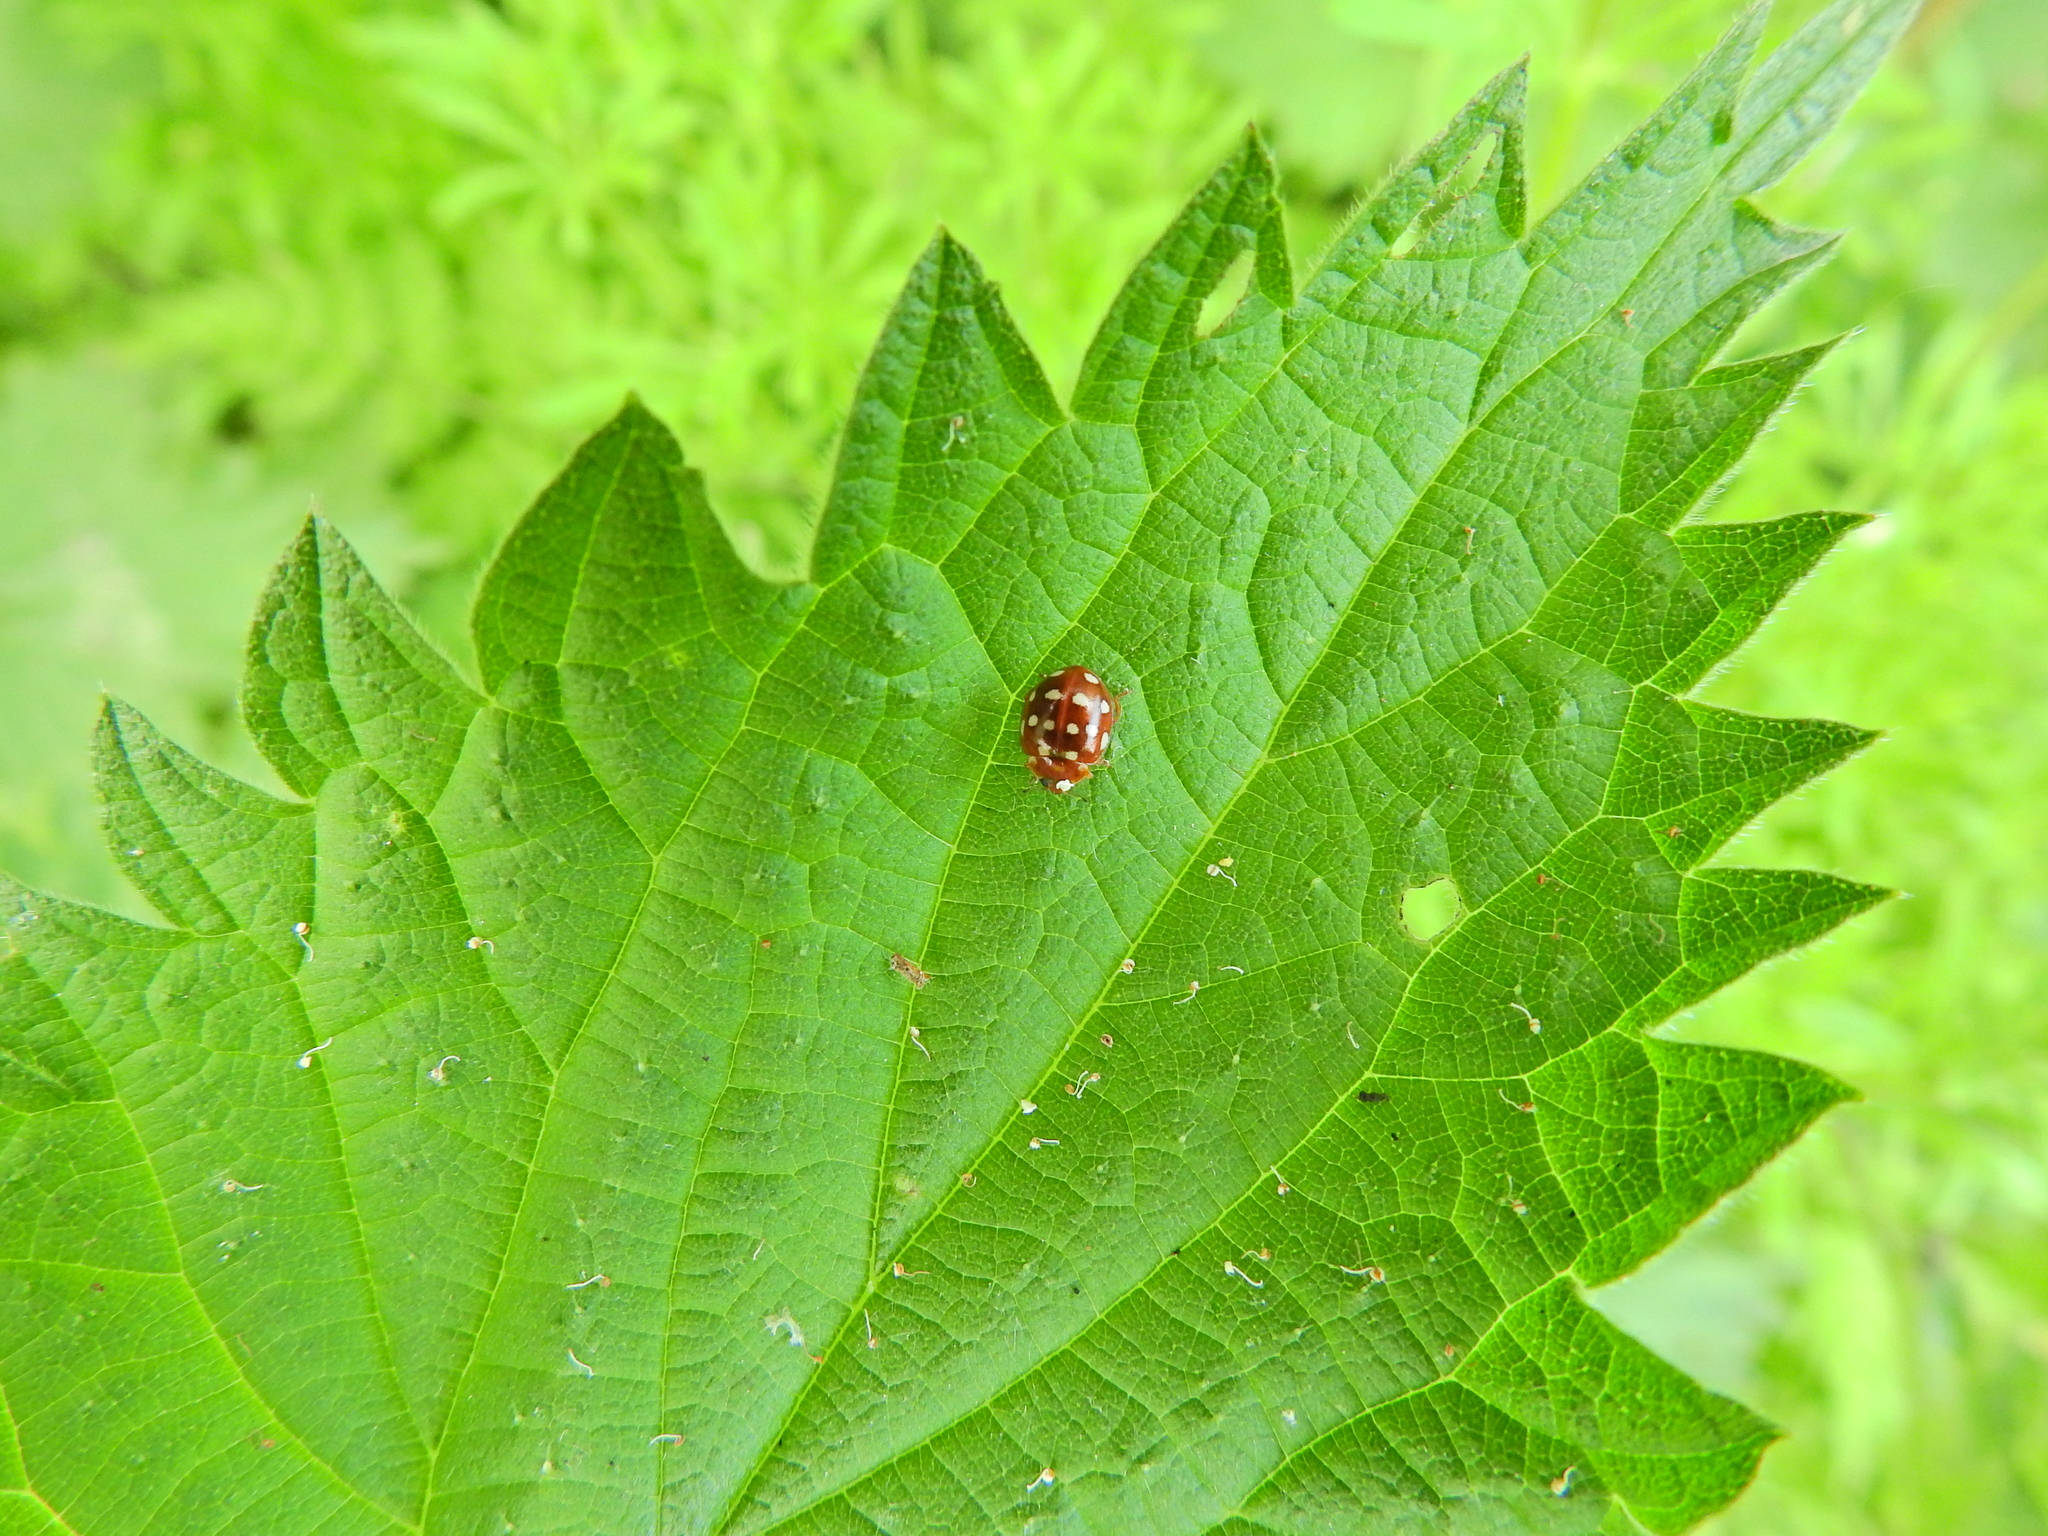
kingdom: Animalia
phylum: Arthropoda
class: Insecta
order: Coleoptera
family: Coccinellidae
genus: Calvia
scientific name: Calvia quatuordecimguttata
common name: Cream-spot ladybird
